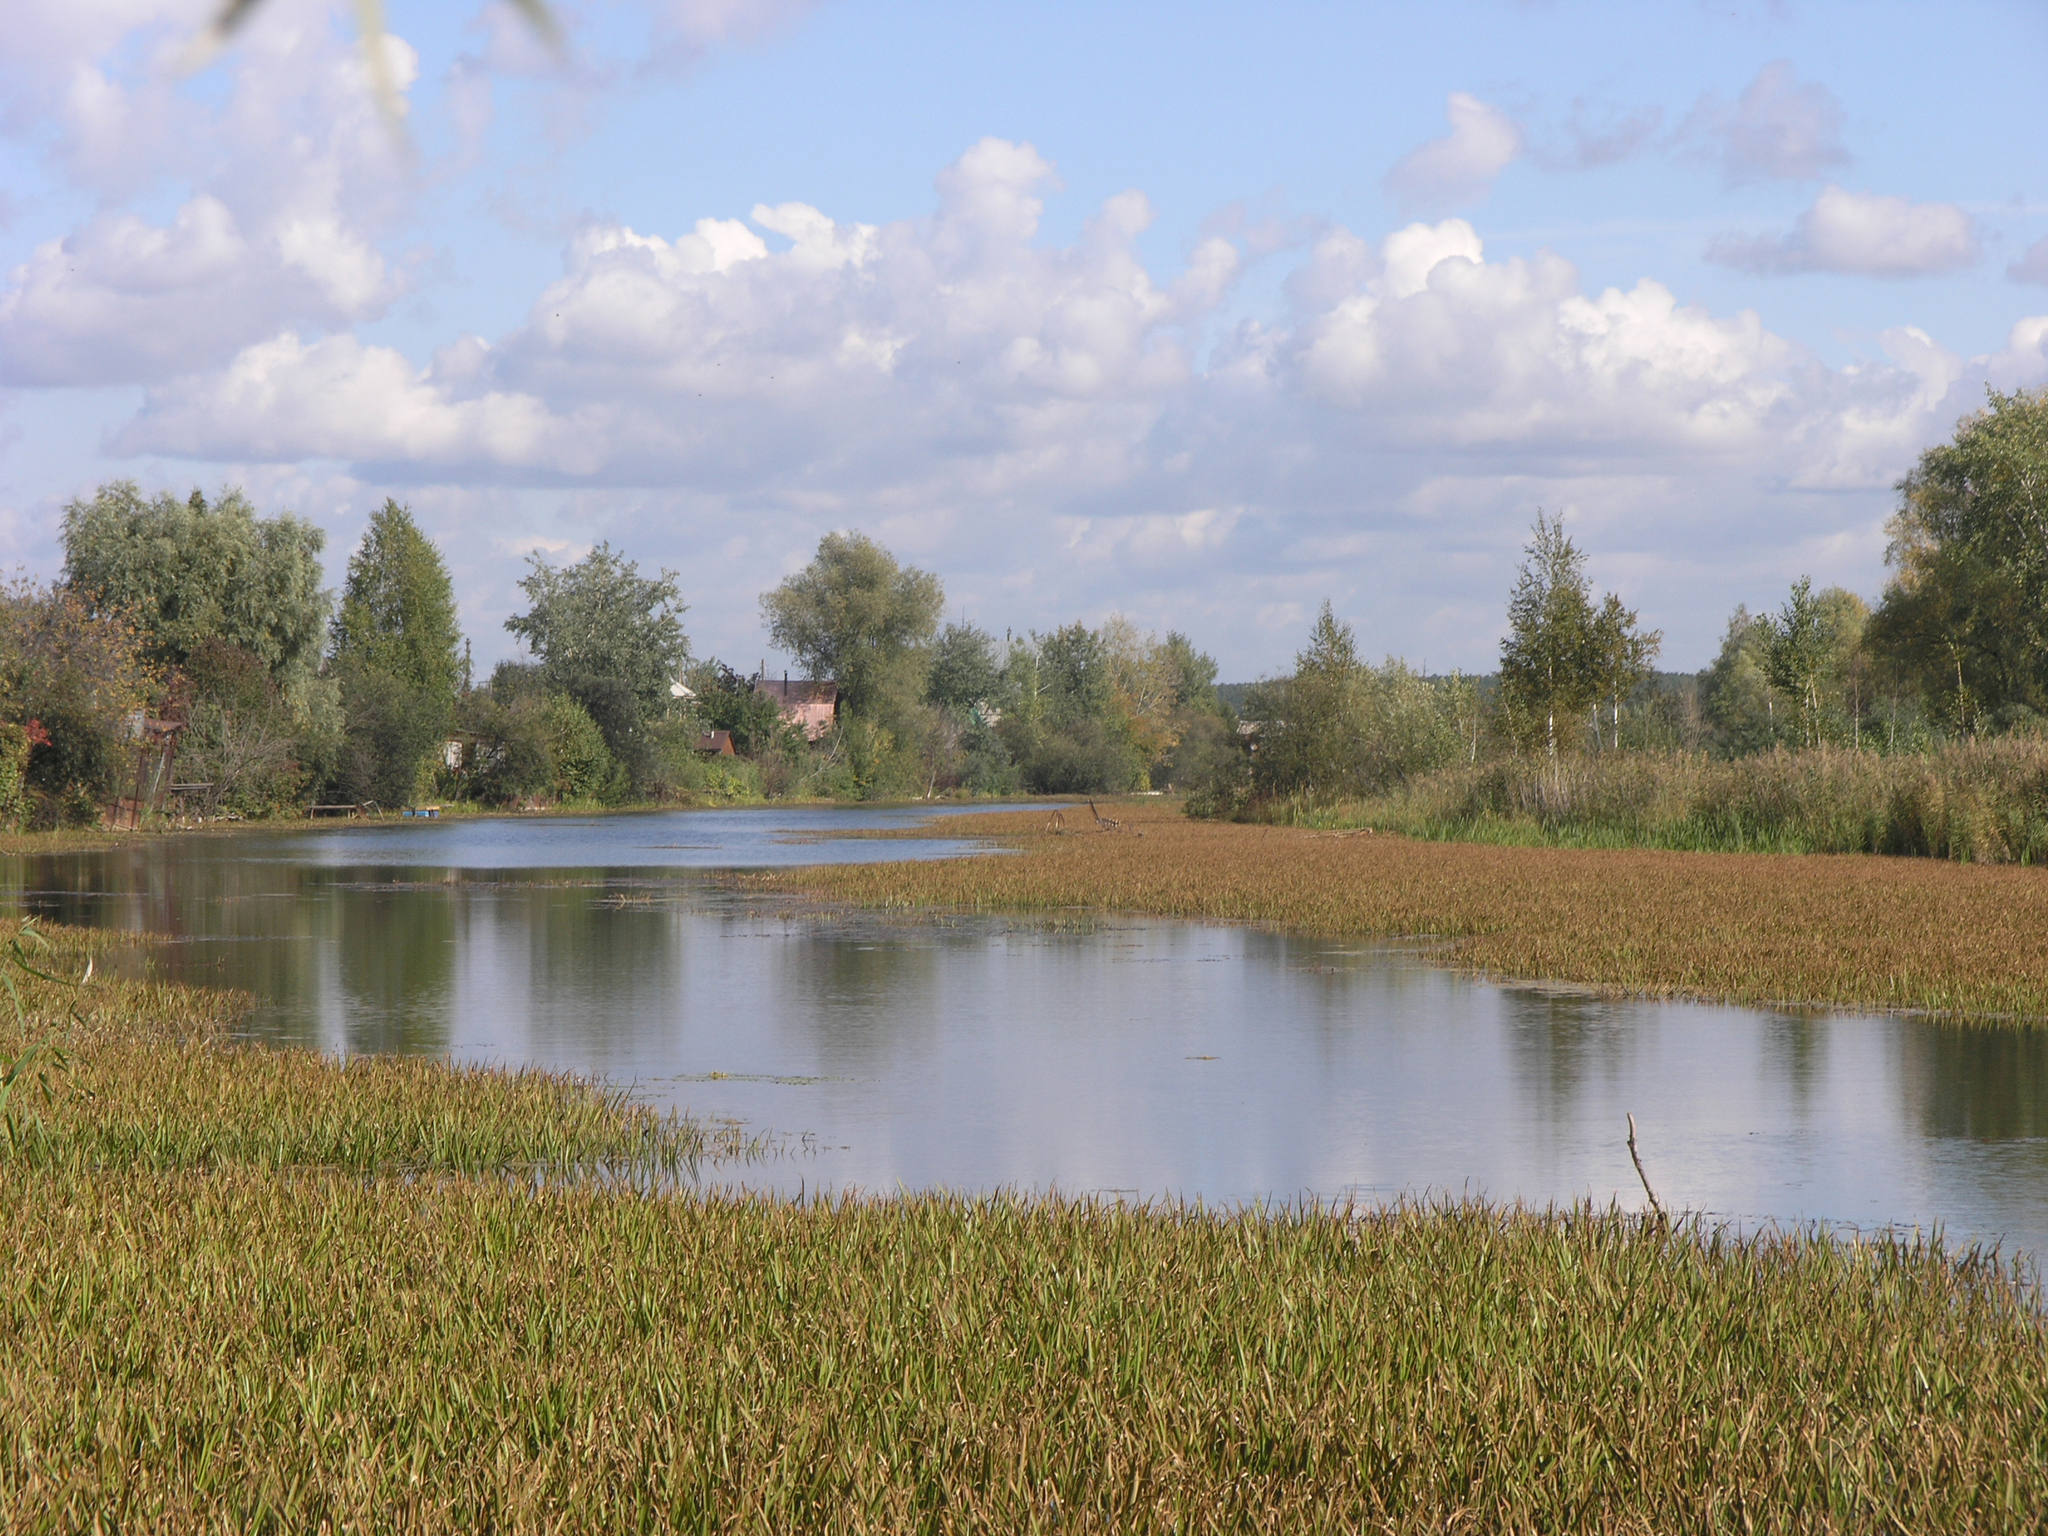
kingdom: Plantae
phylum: Tracheophyta
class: Liliopsida
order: Alismatales
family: Hydrocharitaceae
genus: Stratiotes
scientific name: Stratiotes aloides
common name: Water-soldier
